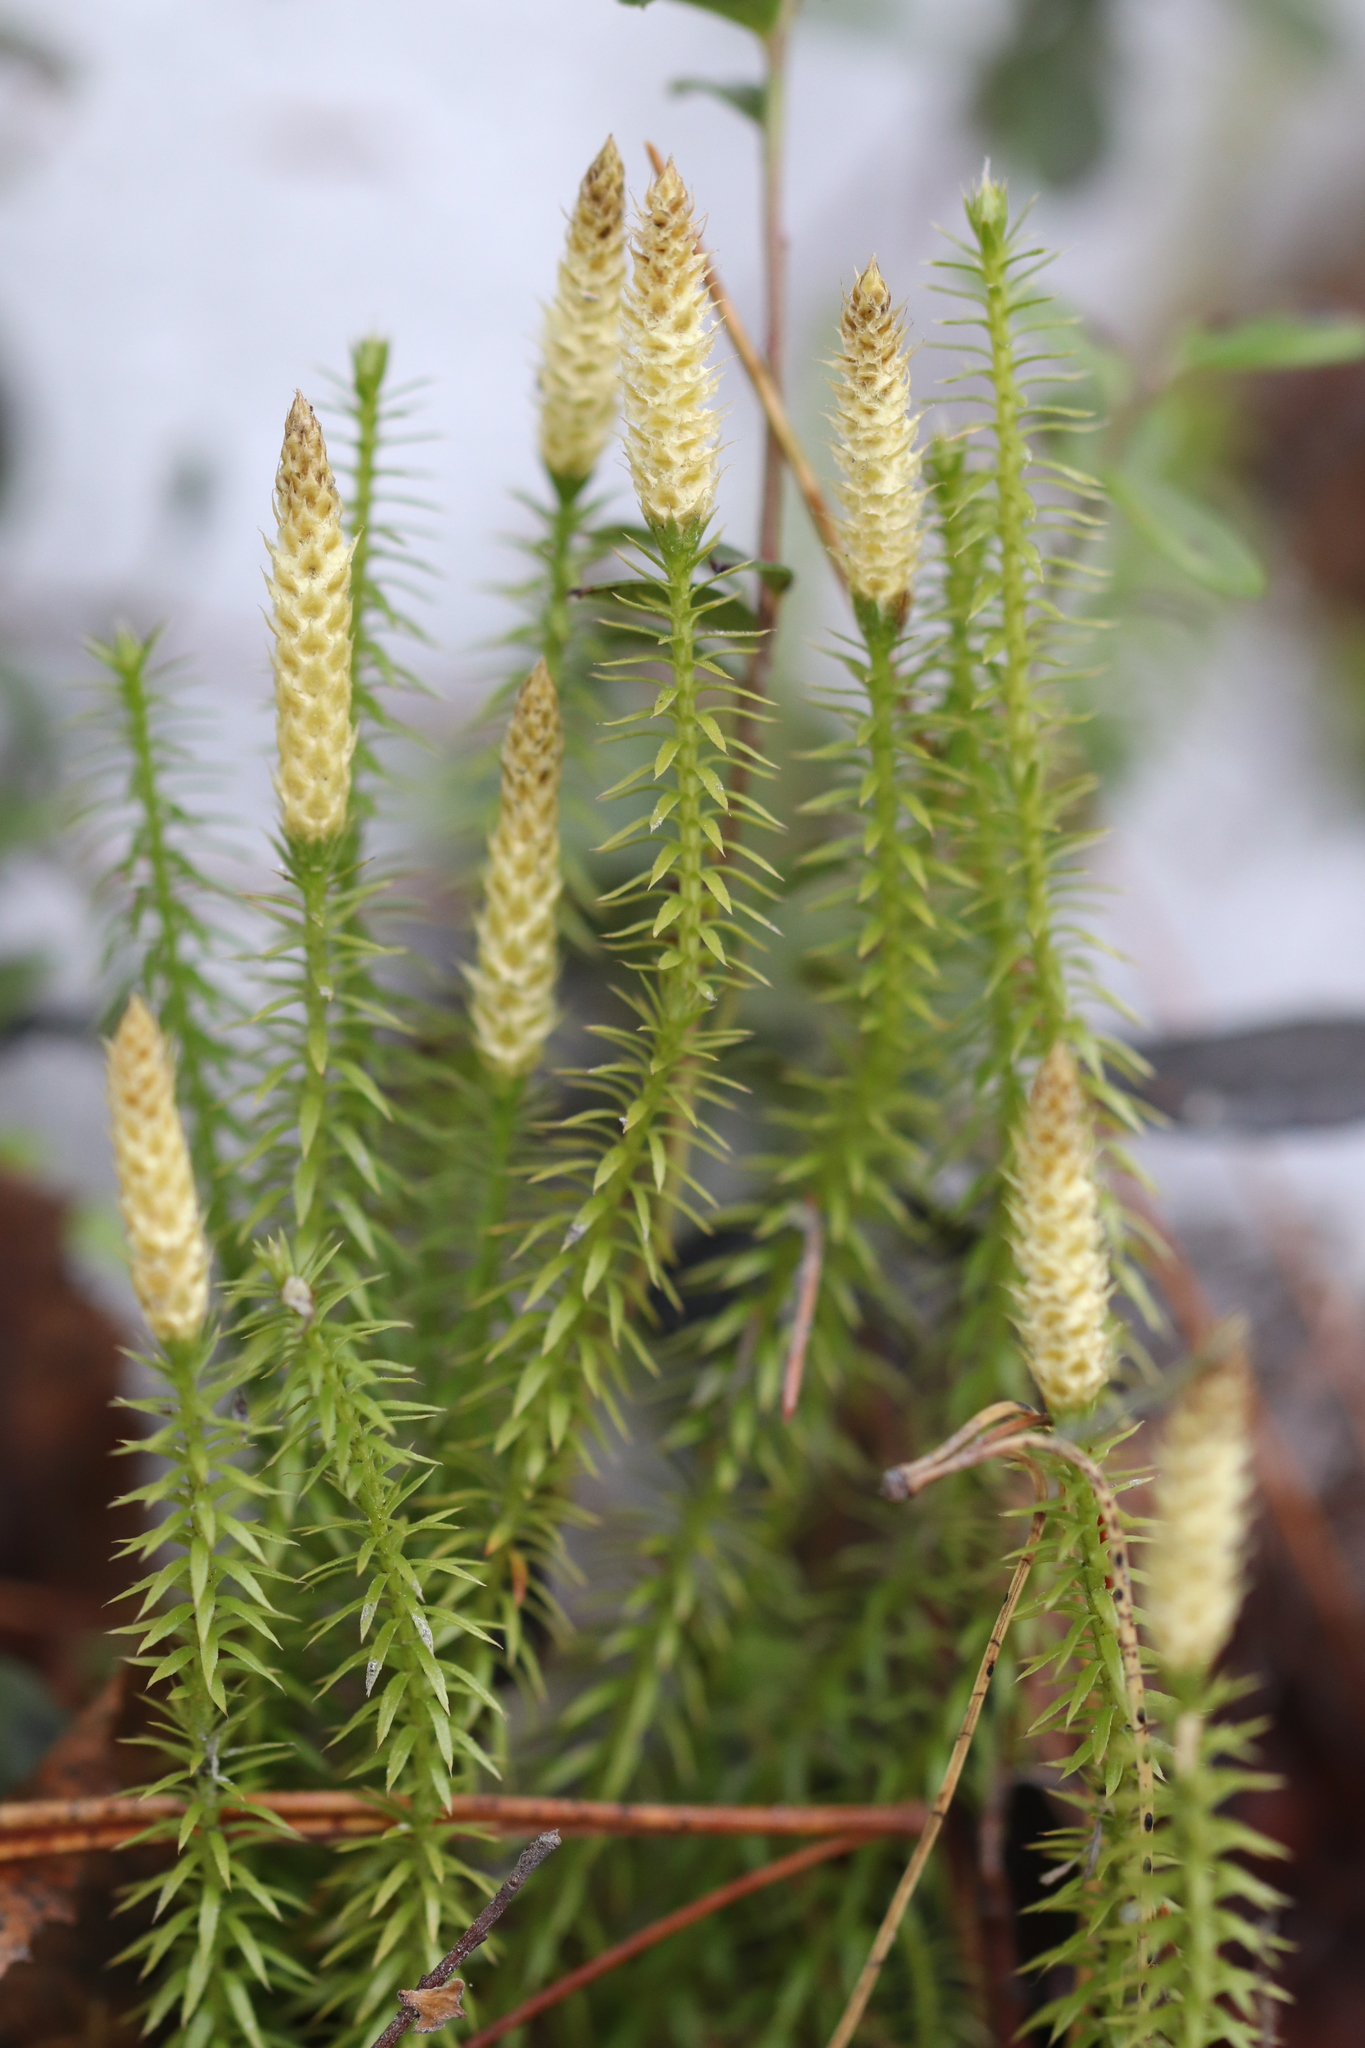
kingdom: Plantae
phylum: Tracheophyta
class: Lycopodiopsida
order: Lycopodiales
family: Lycopodiaceae
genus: Spinulum
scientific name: Spinulum annotinum
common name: Interrupted club-moss
